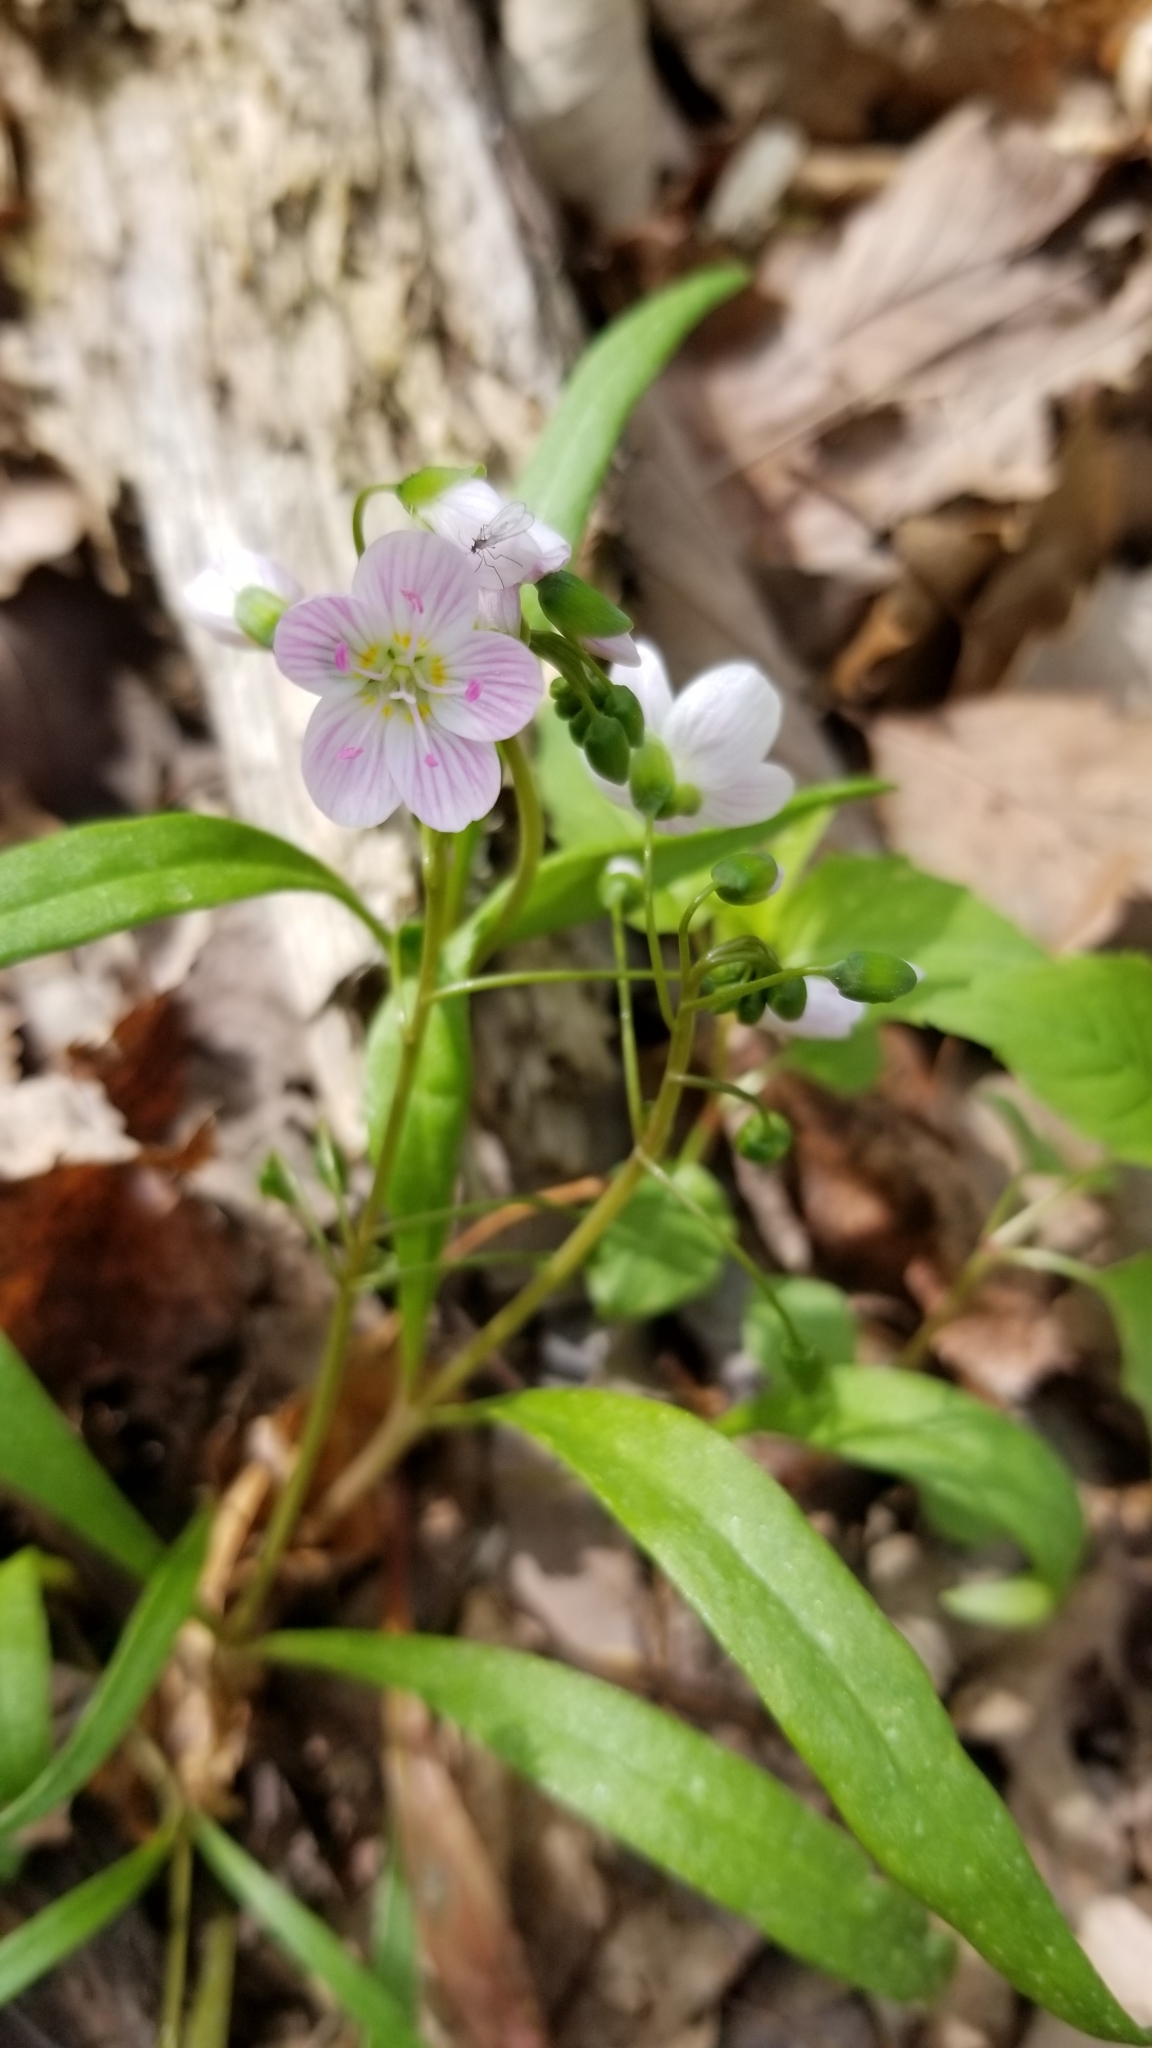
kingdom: Plantae
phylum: Tracheophyta
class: Magnoliopsida
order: Caryophyllales
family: Montiaceae
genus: Claytonia
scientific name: Claytonia virginica
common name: Virginia springbeauty
